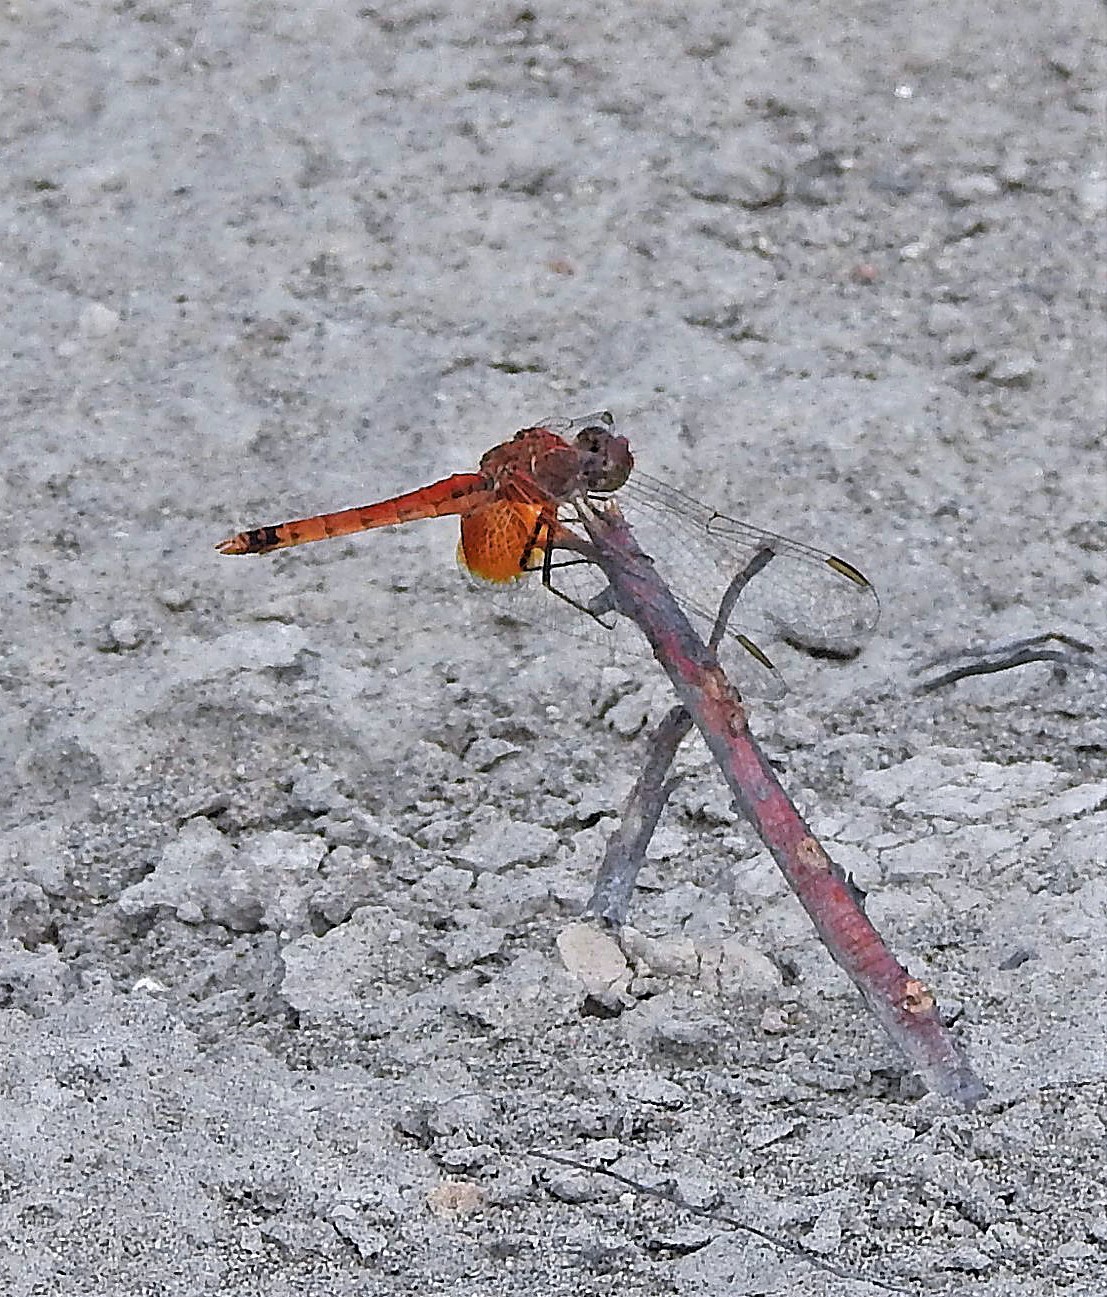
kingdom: Animalia
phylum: Arthropoda
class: Insecta
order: Odonata
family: Libellulidae
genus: Erythrodiplax
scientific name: Erythrodiplax corallina
